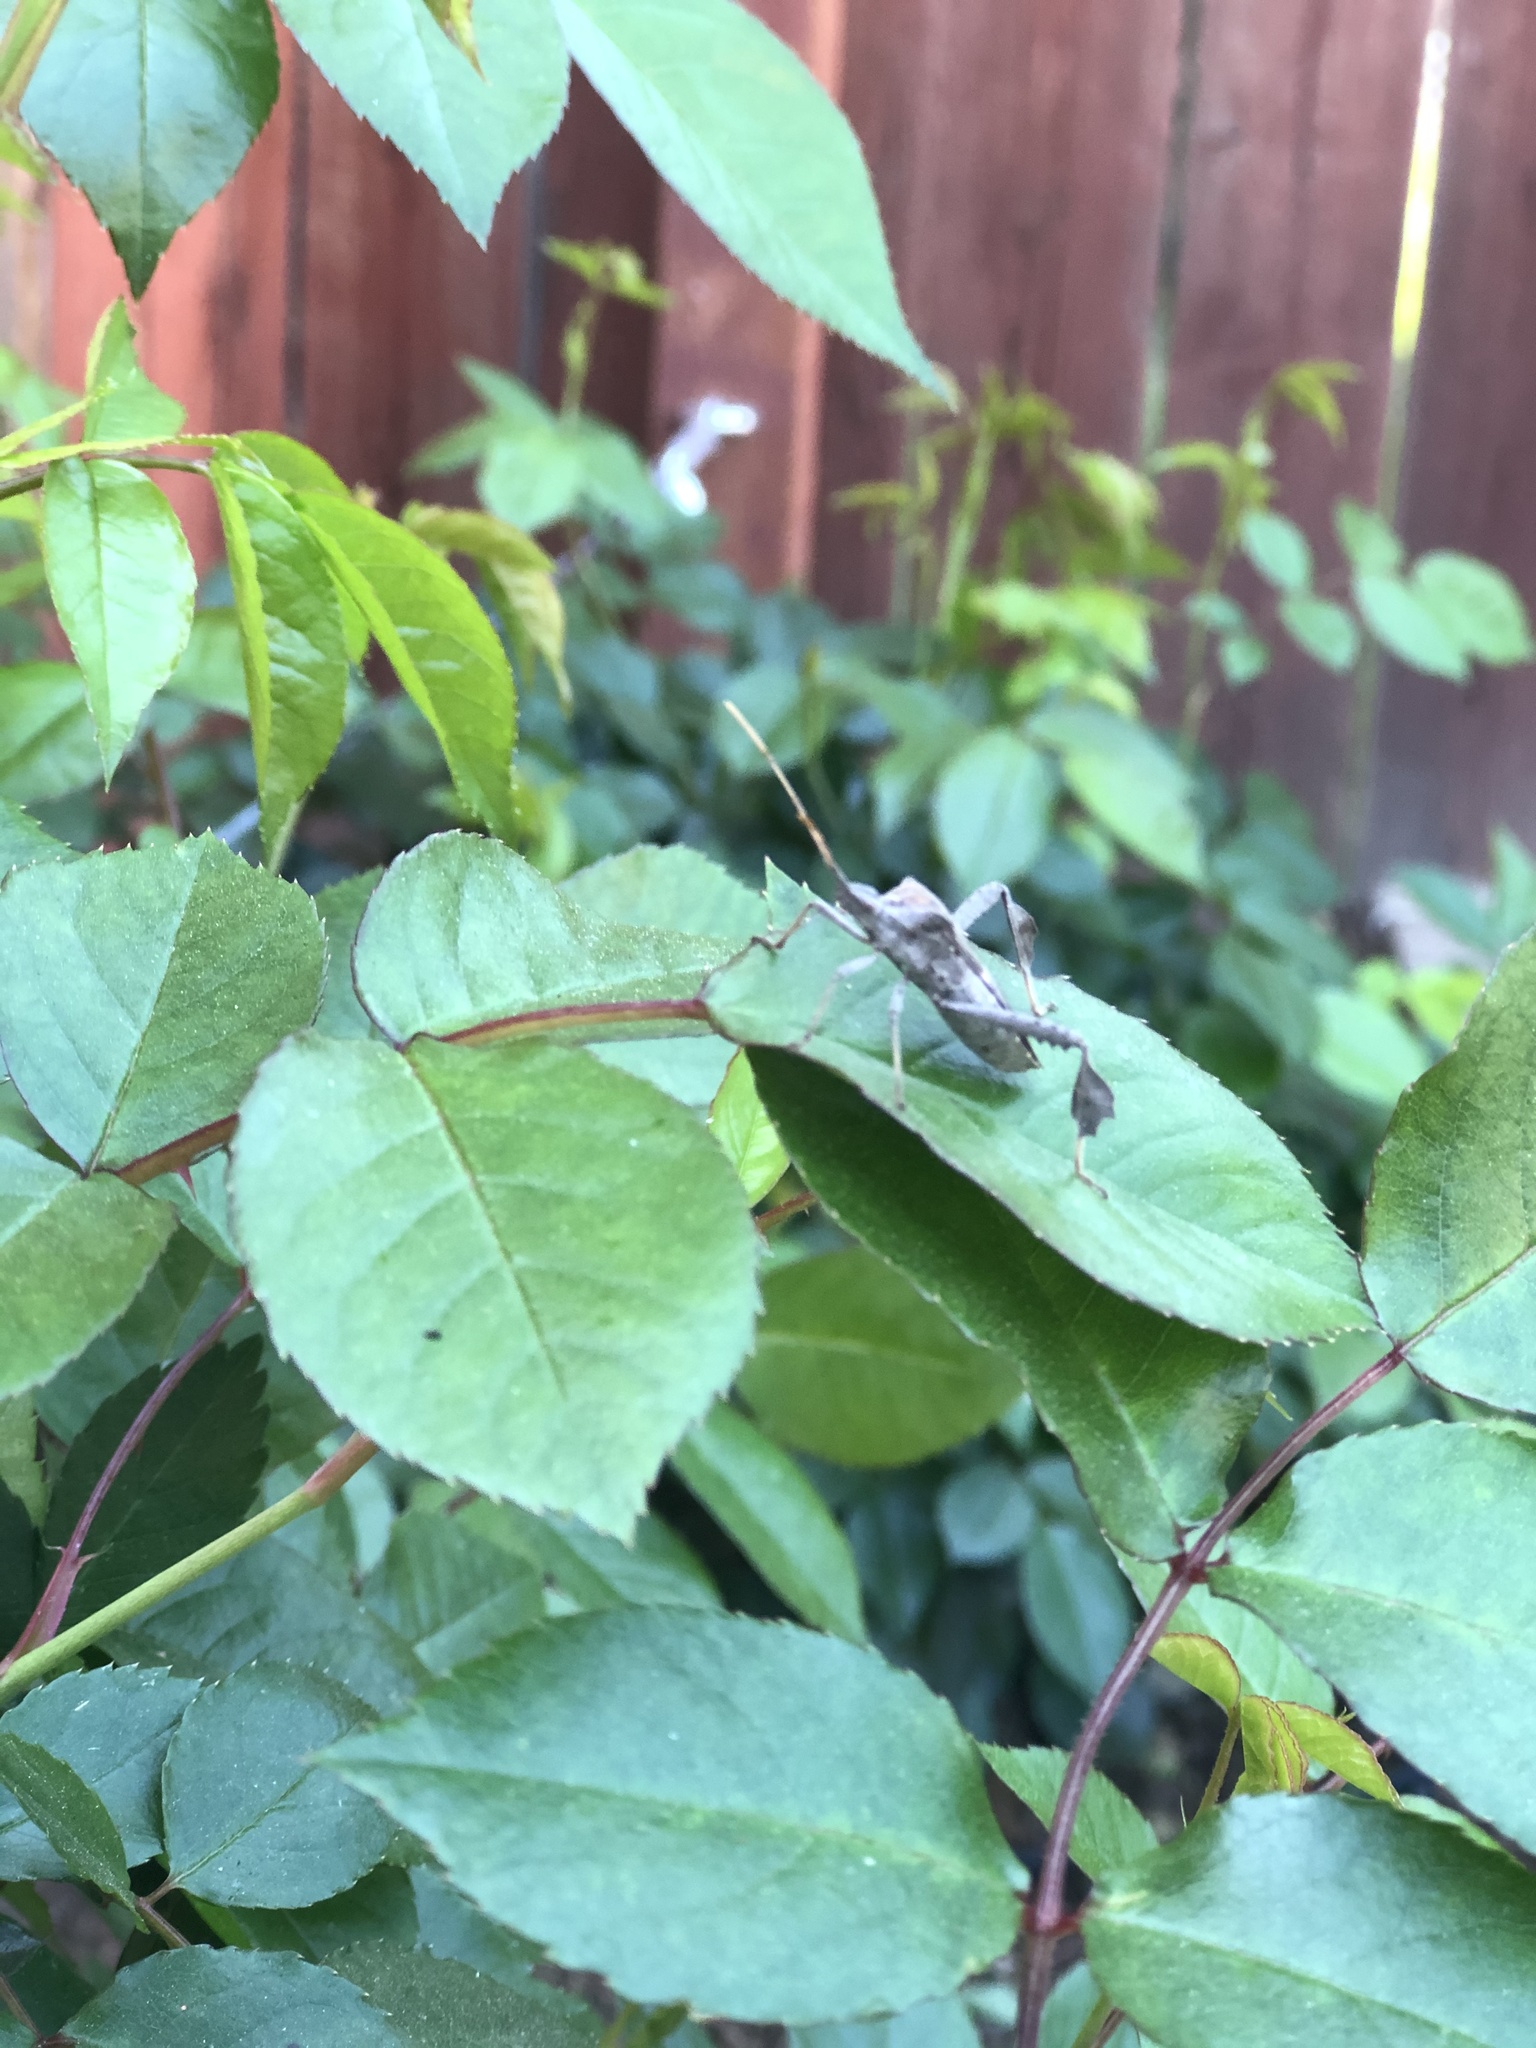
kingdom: Animalia
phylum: Arthropoda
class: Insecta
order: Hemiptera
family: Coreidae
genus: Leptoglossus
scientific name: Leptoglossus zonatus
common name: Large-legged bug
